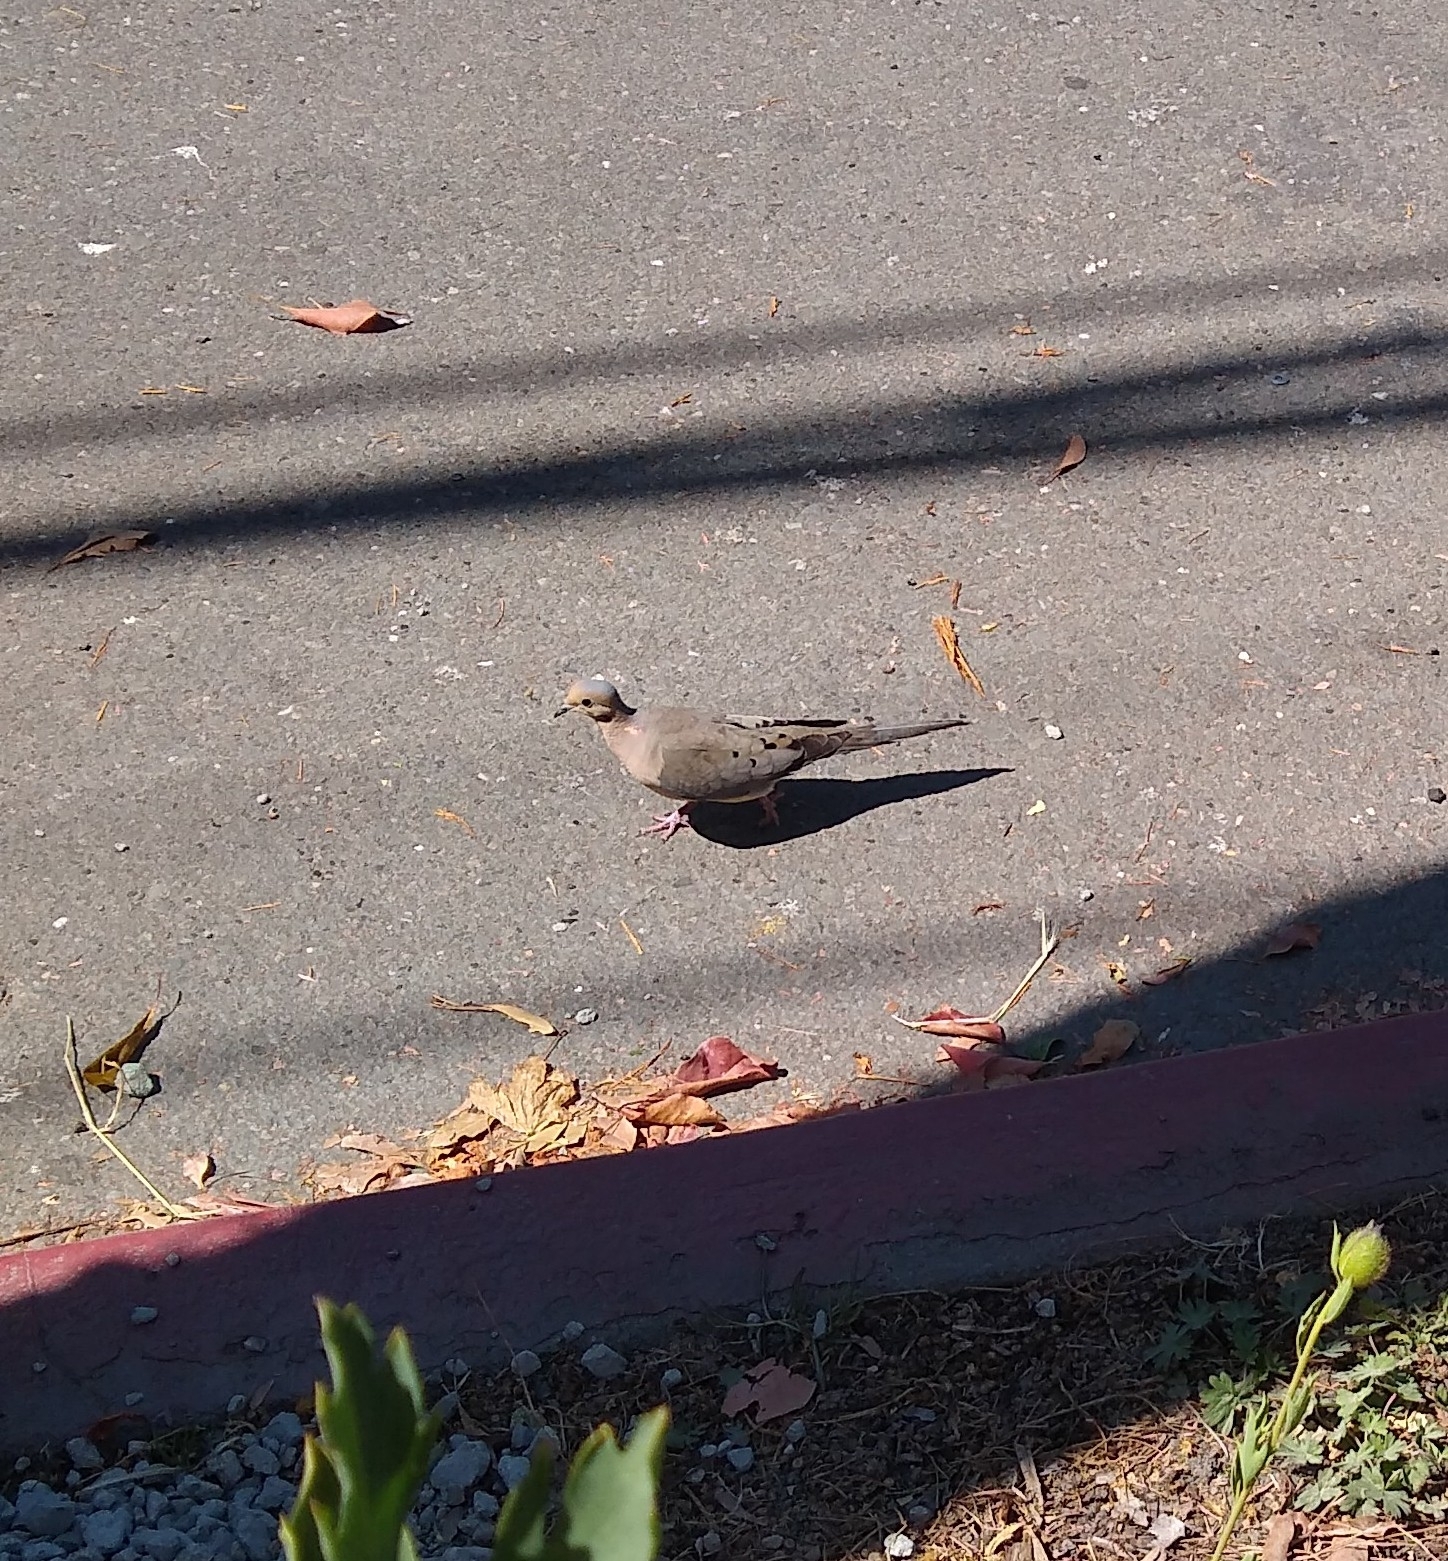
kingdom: Animalia
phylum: Chordata
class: Aves
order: Columbiformes
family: Columbidae
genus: Zenaida
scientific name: Zenaida macroura
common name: Mourning dove
